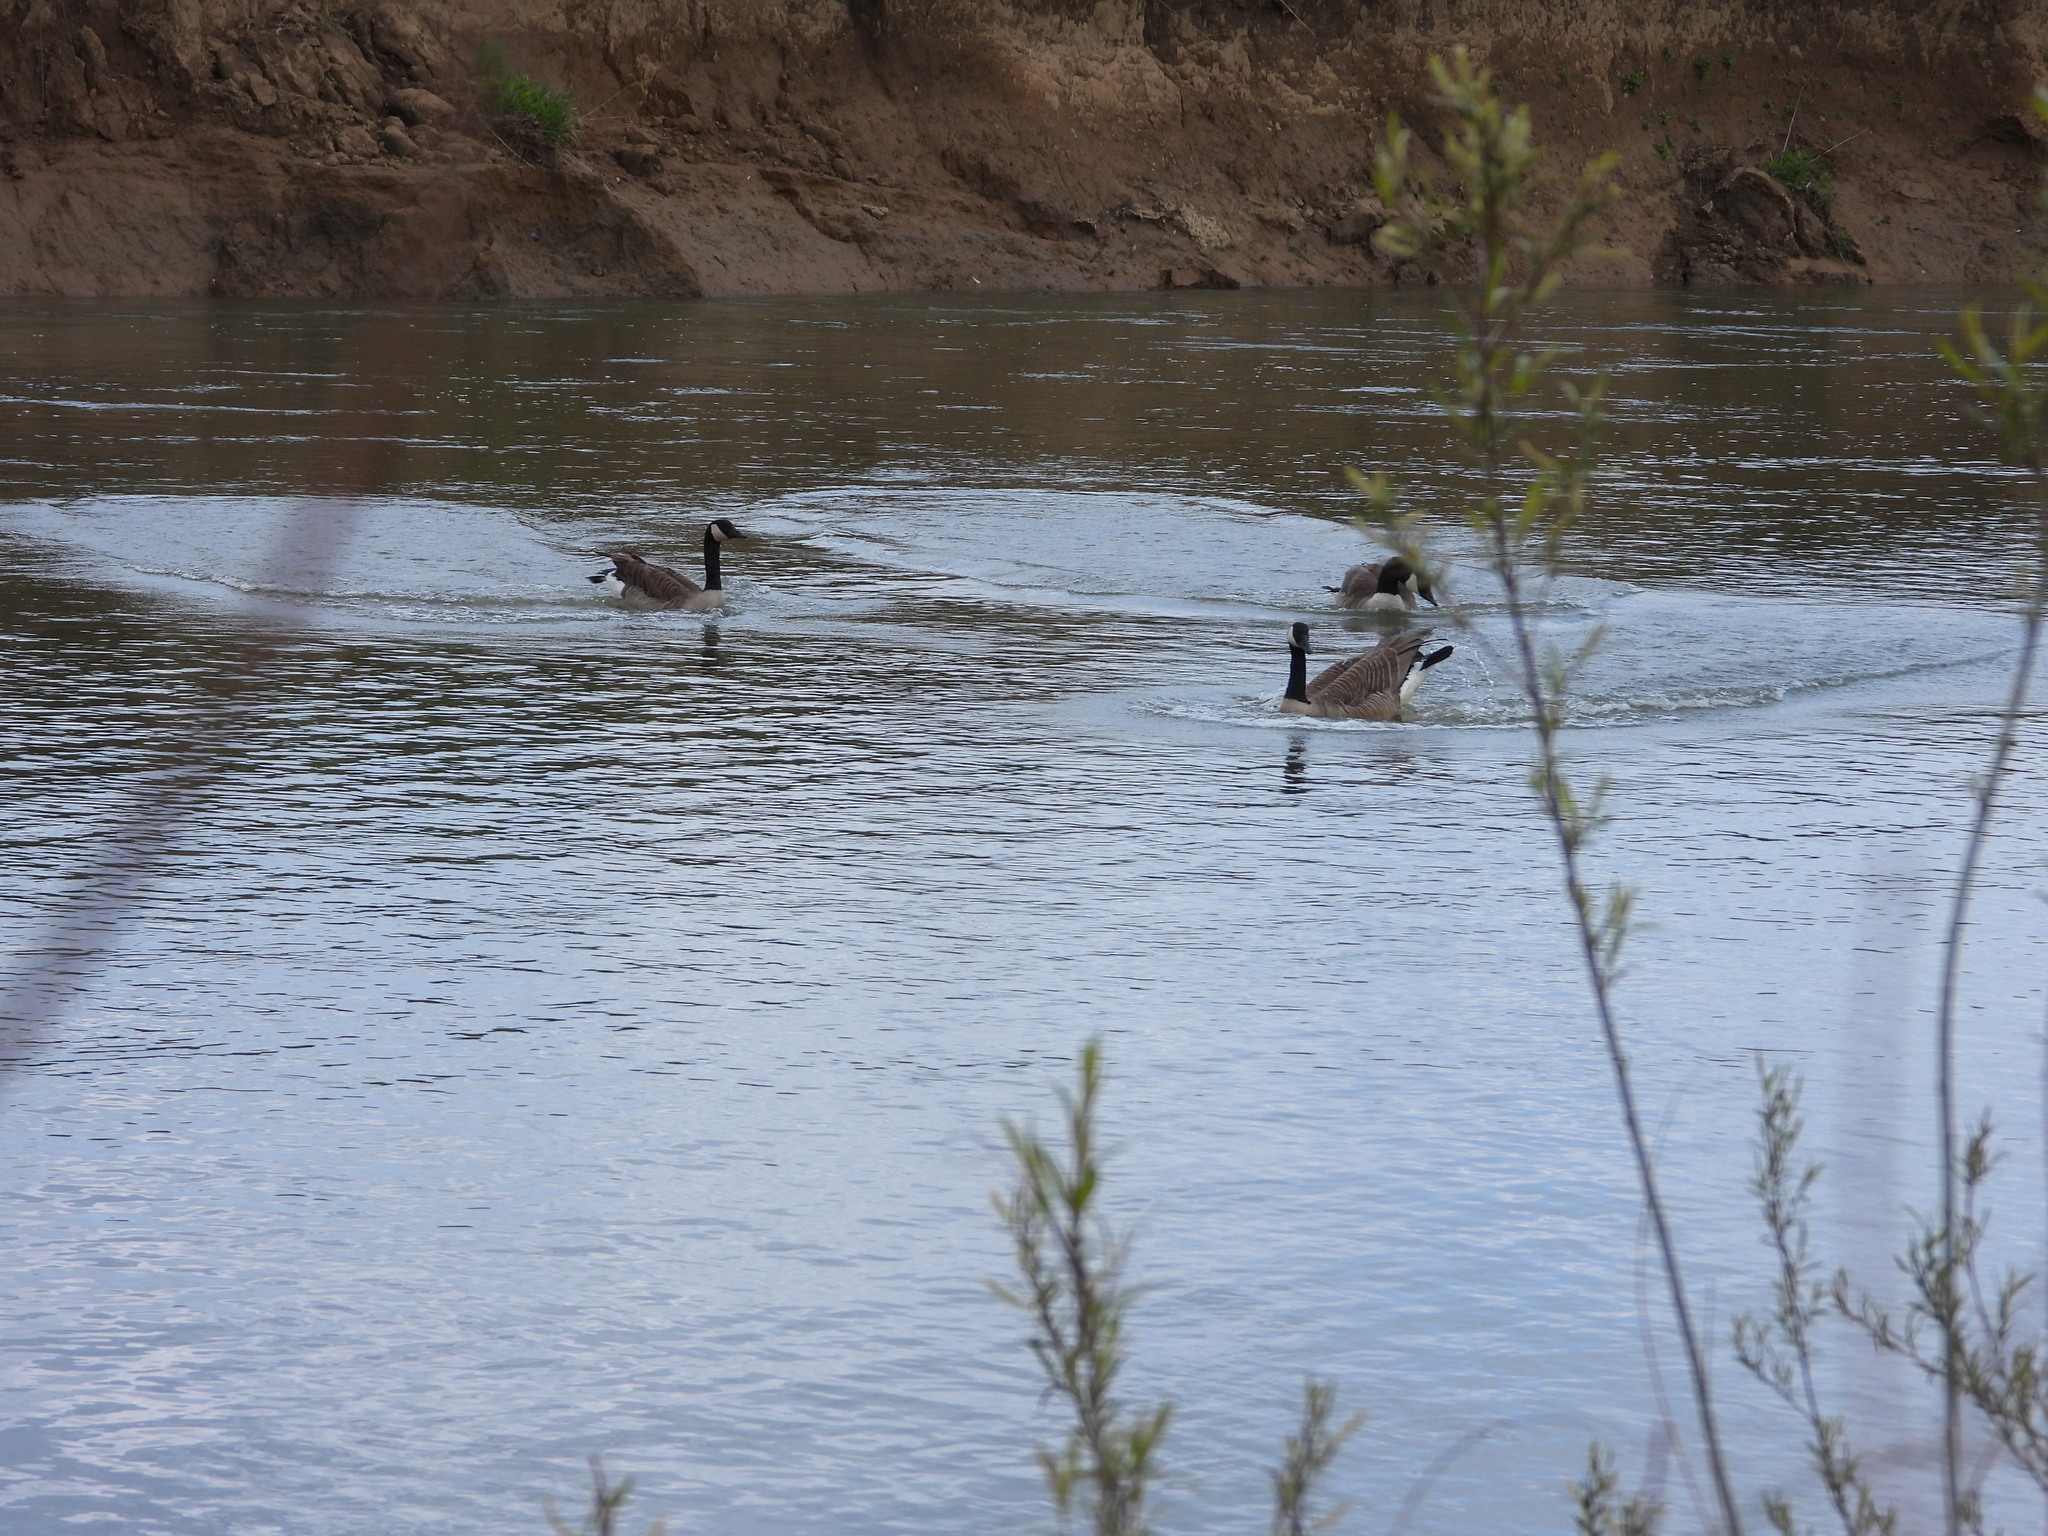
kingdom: Animalia
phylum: Chordata
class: Aves
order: Anseriformes
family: Anatidae
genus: Branta
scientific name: Branta canadensis
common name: Canada goose
